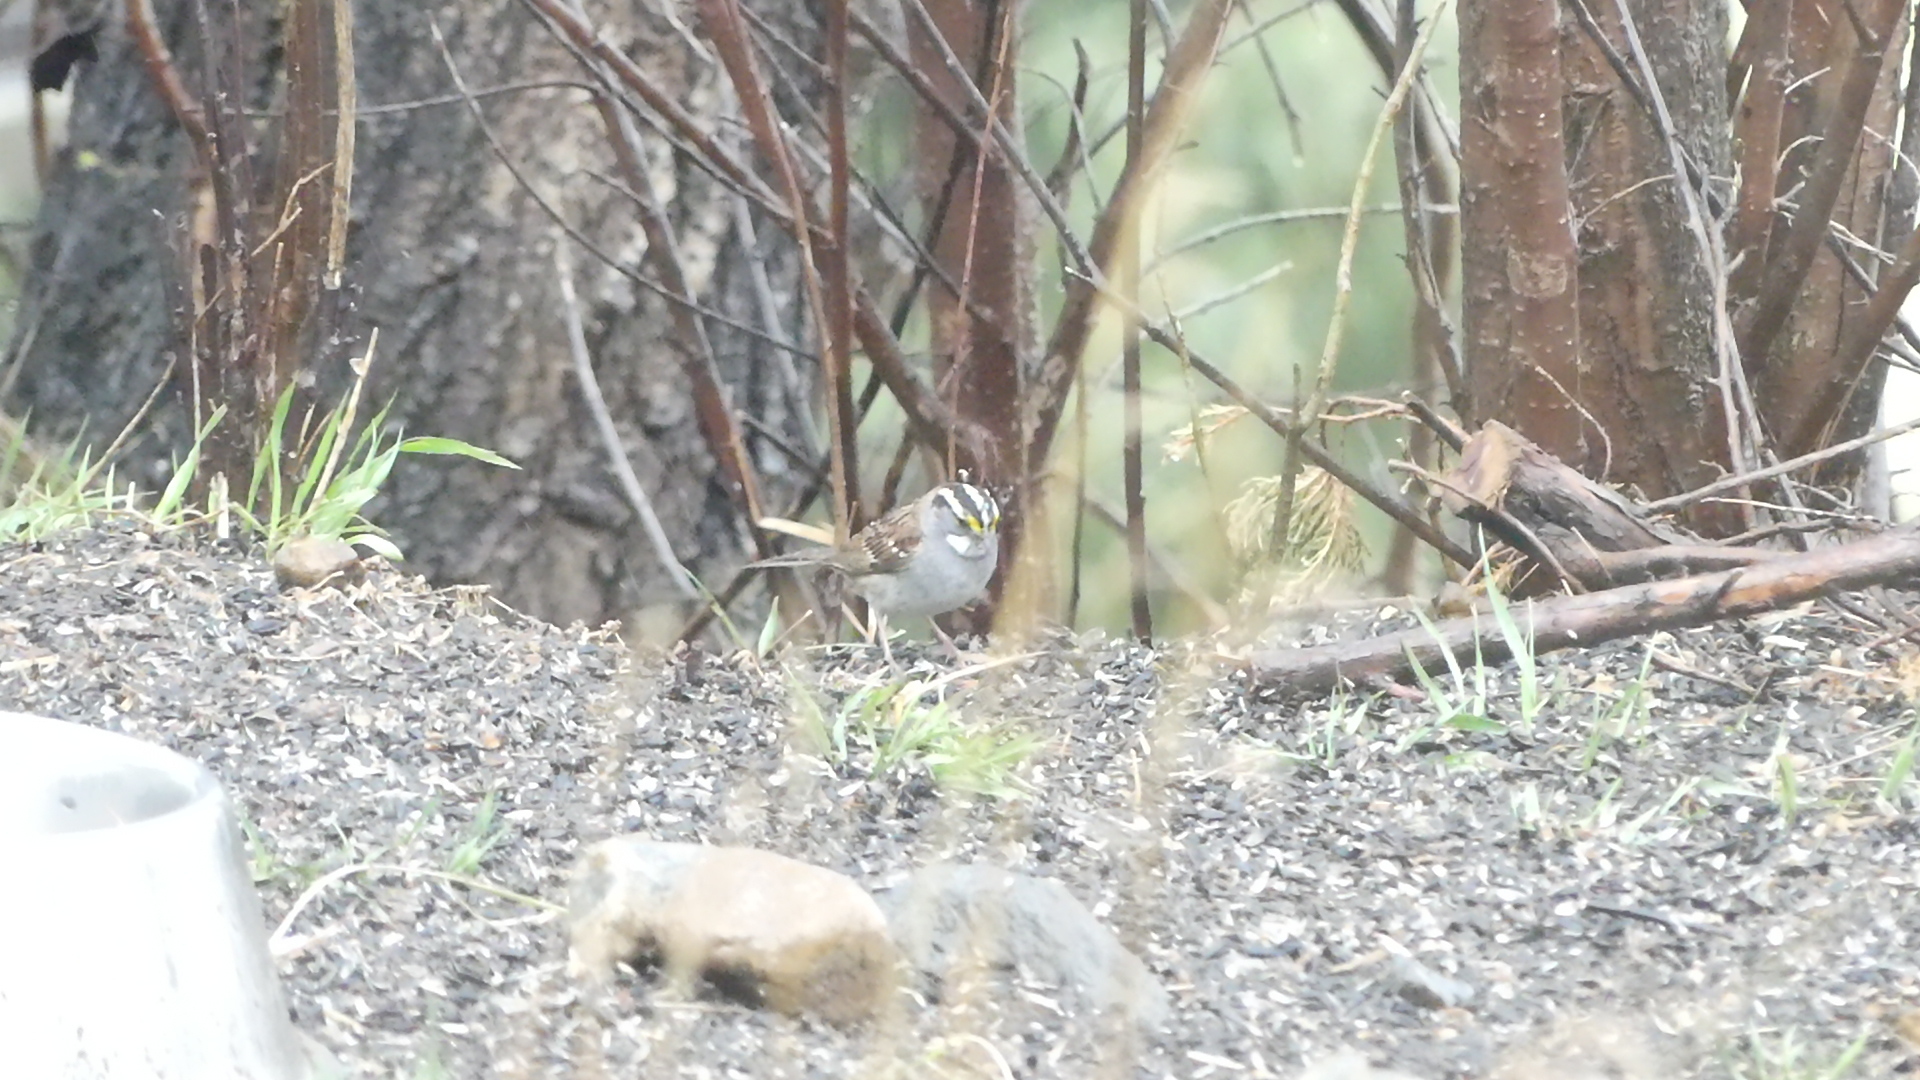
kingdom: Animalia
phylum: Chordata
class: Aves
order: Passeriformes
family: Passerellidae
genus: Zonotrichia
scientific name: Zonotrichia albicollis
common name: White-throated sparrow
